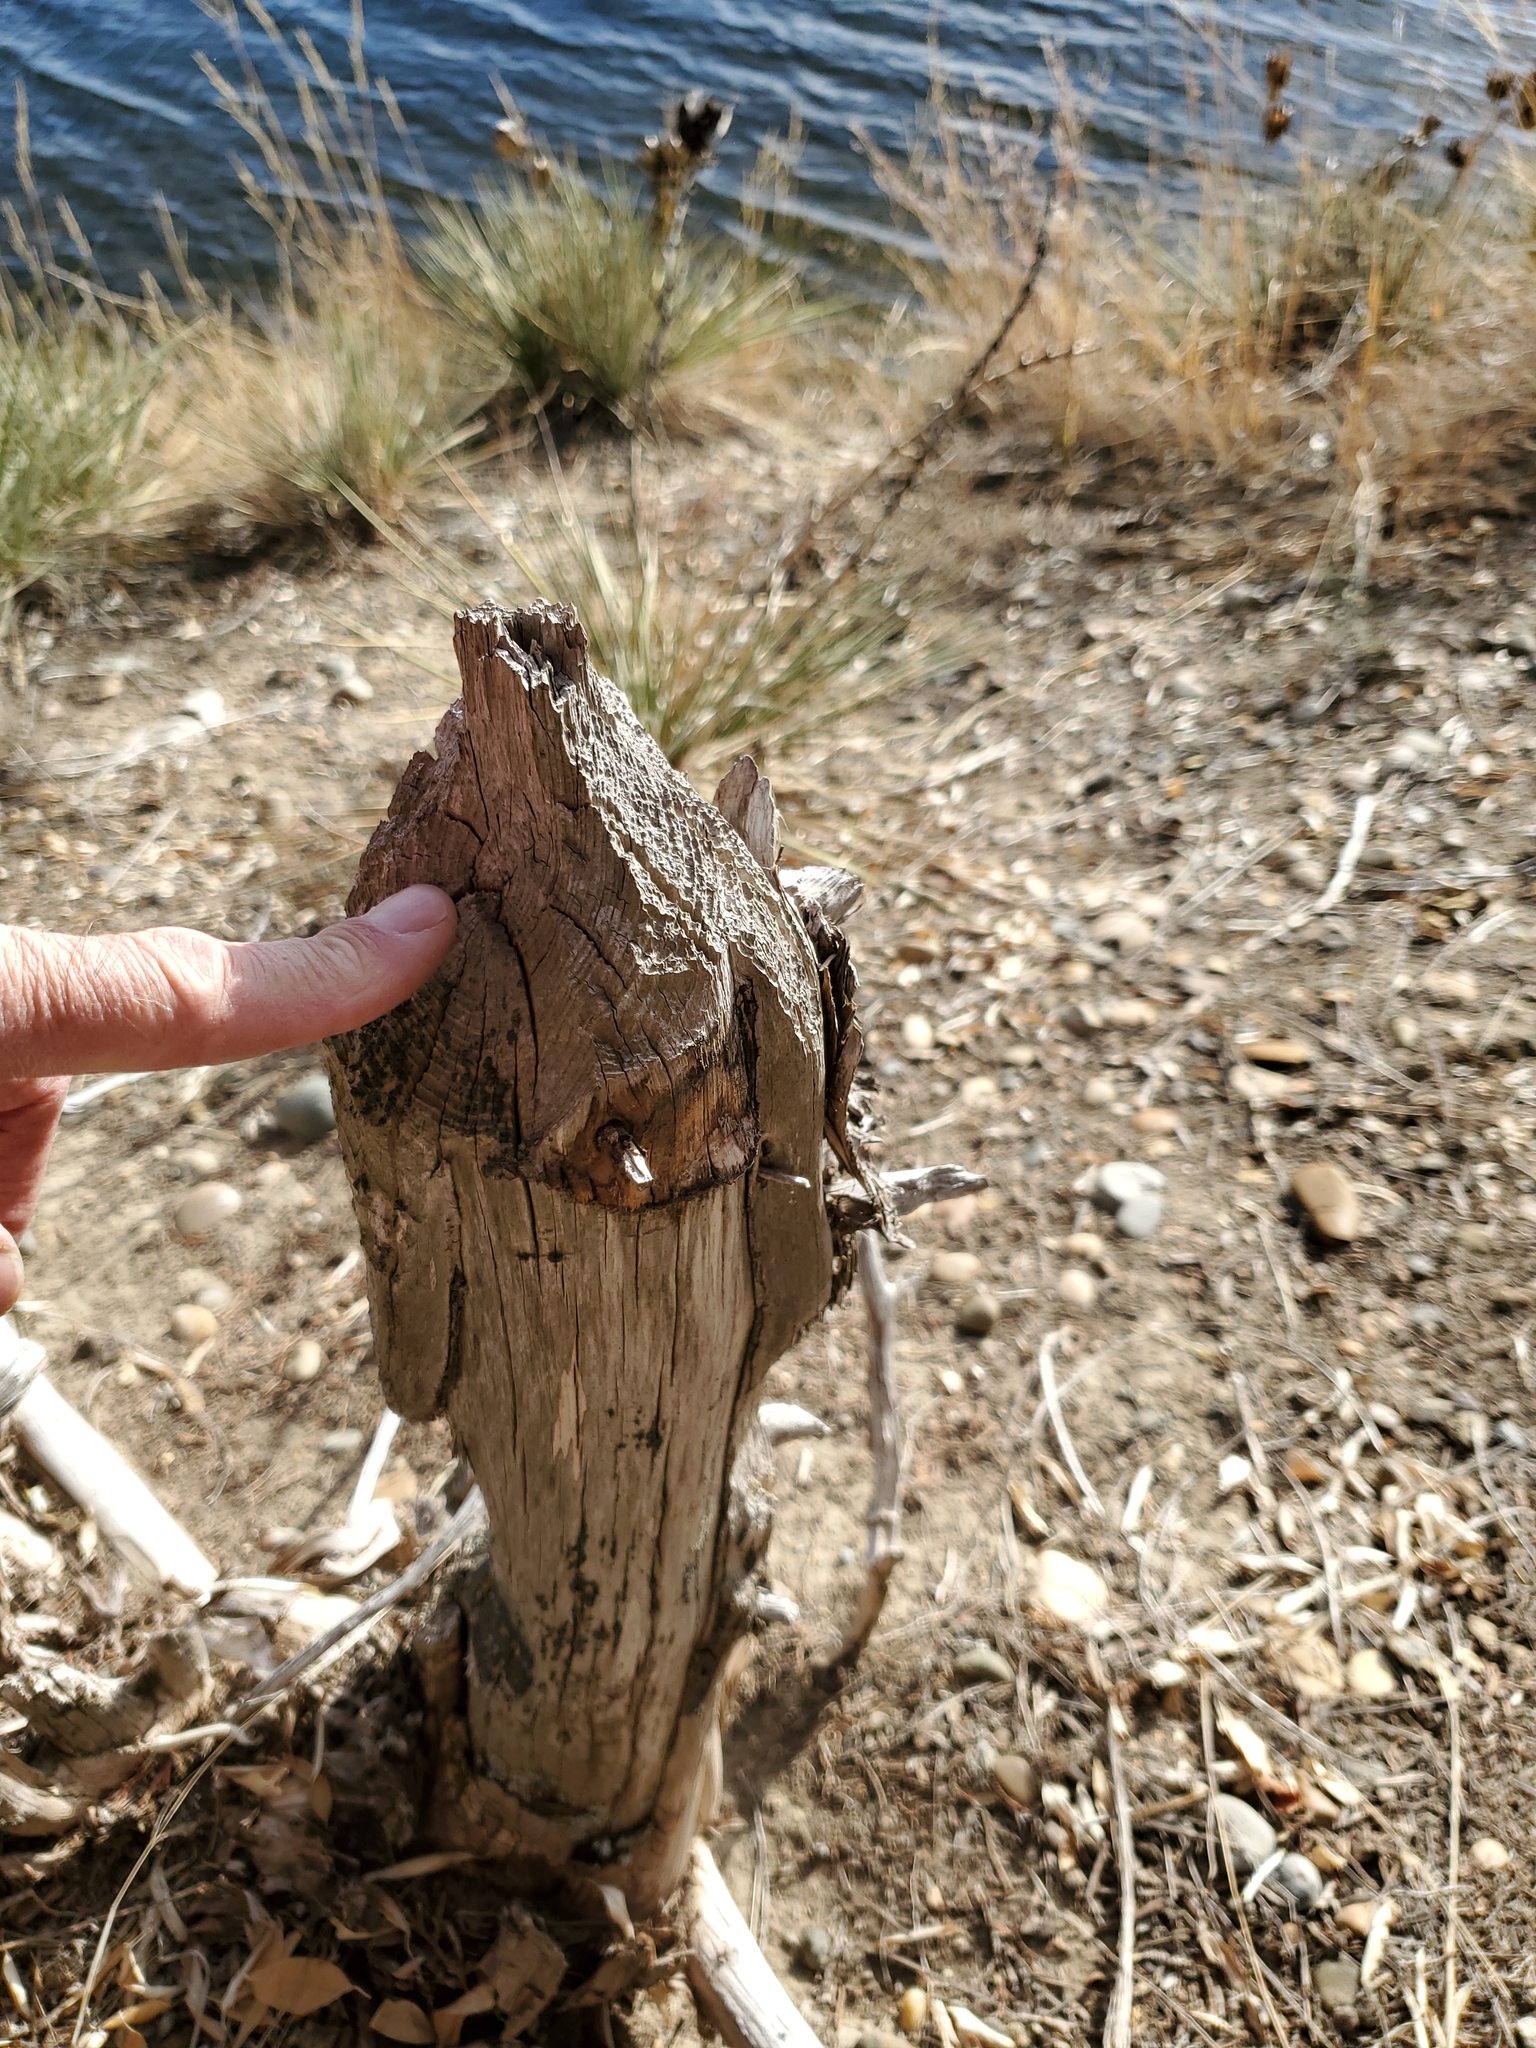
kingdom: Animalia
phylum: Chordata
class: Mammalia
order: Rodentia
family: Castoridae
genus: Castor
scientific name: Castor canadensis
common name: American beaver
